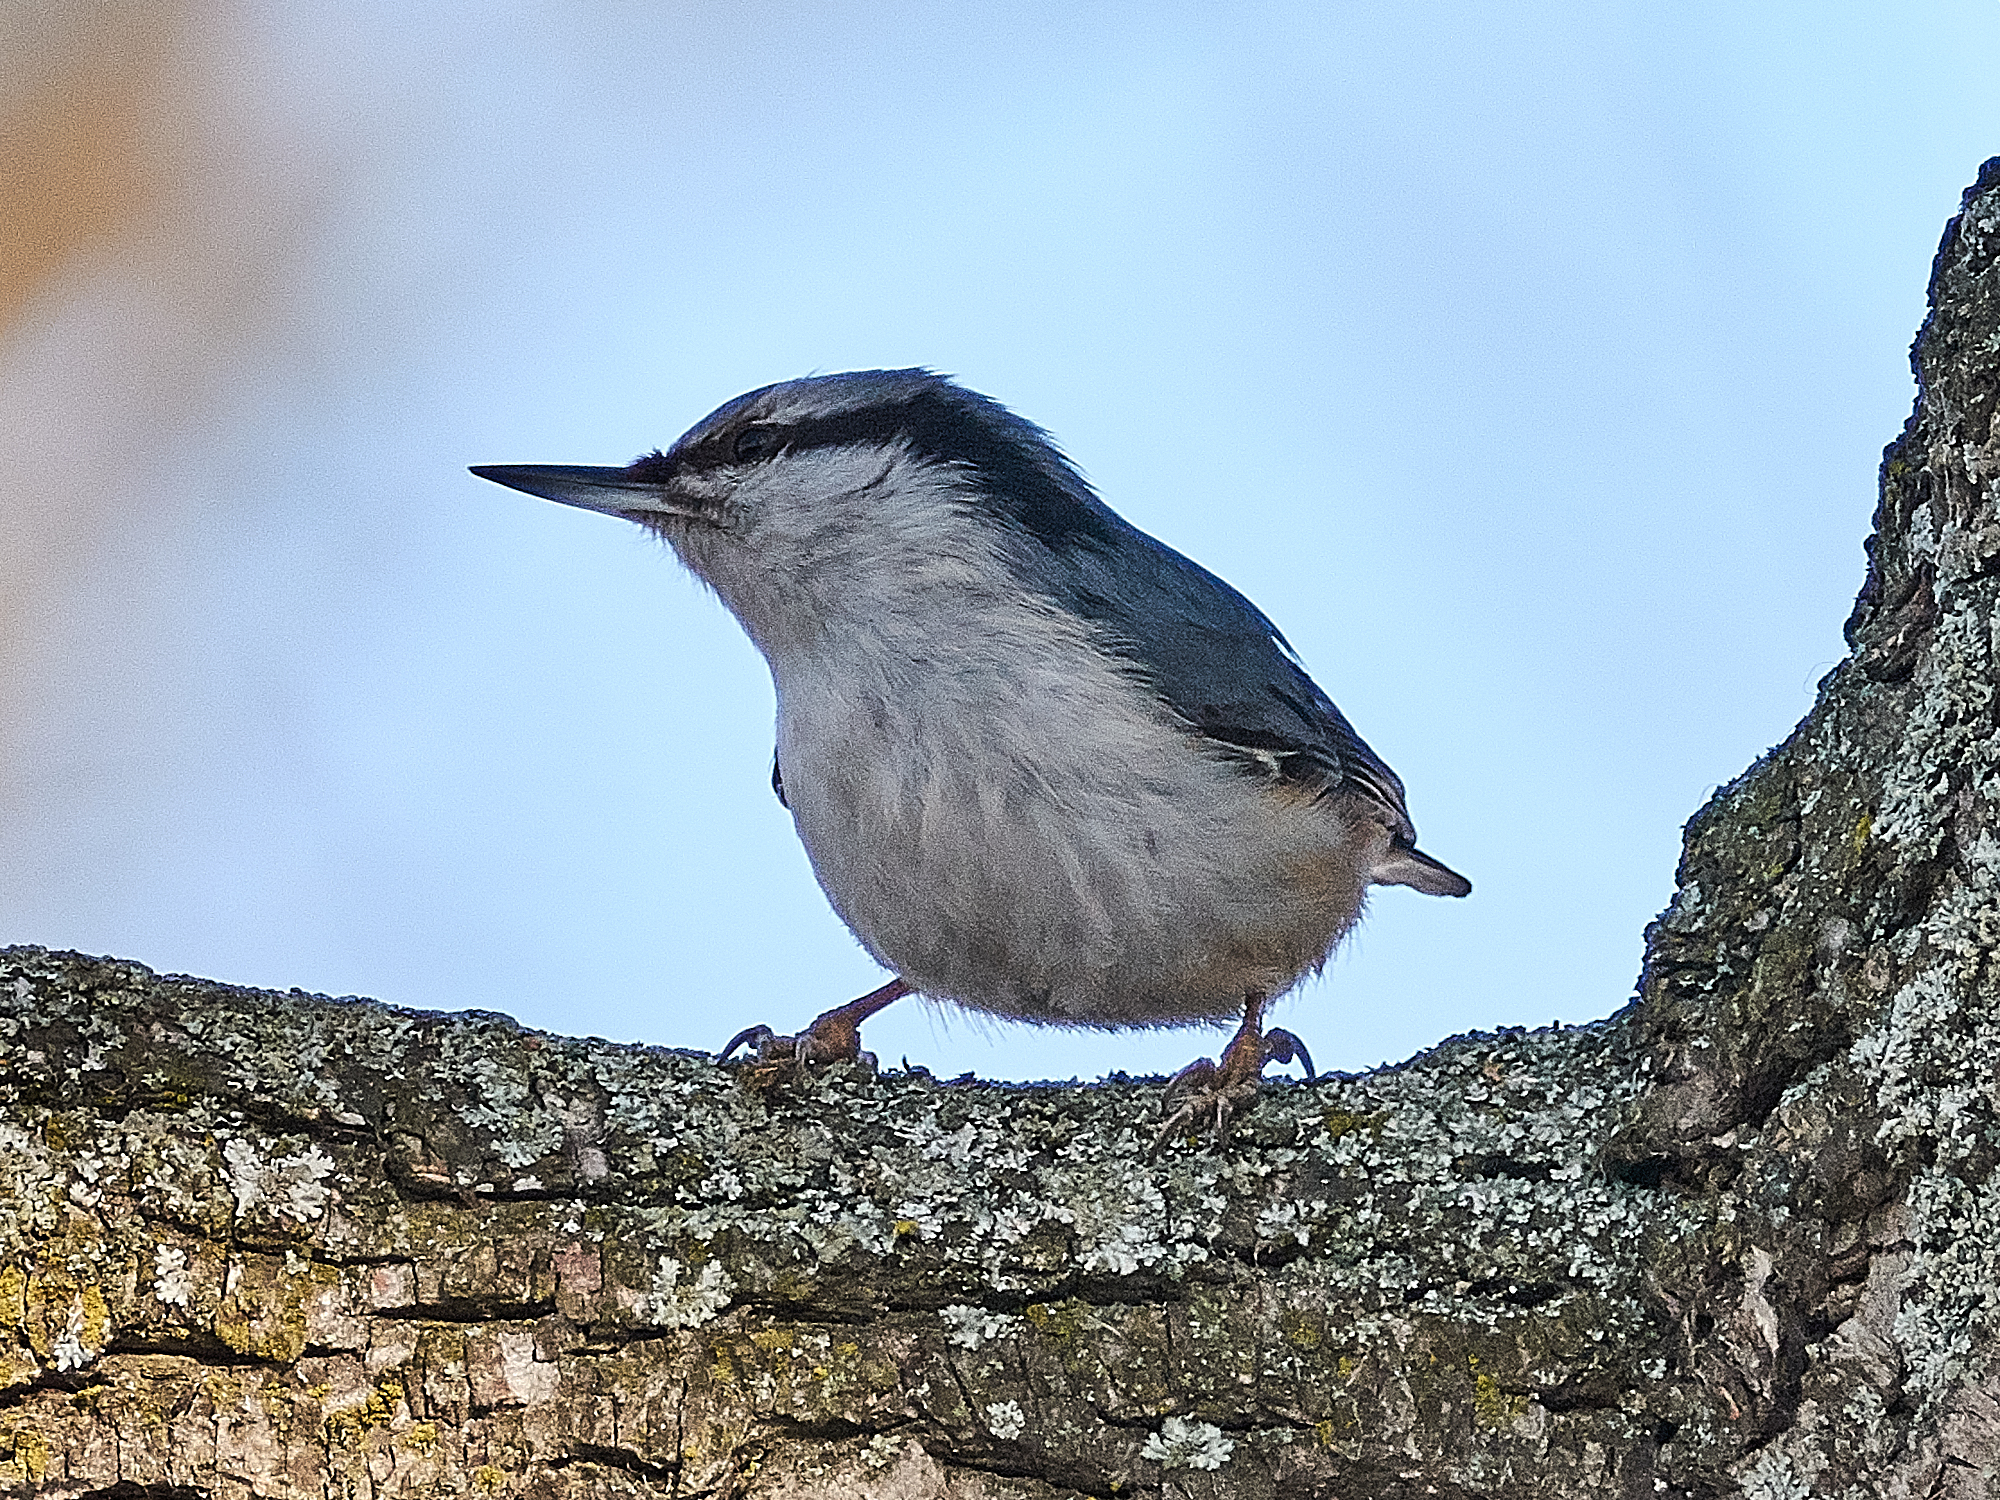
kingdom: Animalia
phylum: Chordata
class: Aves
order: Passeriformes
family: Sittidae
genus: Sitta
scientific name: Sitta europaea
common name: Eurasian nuthatch
